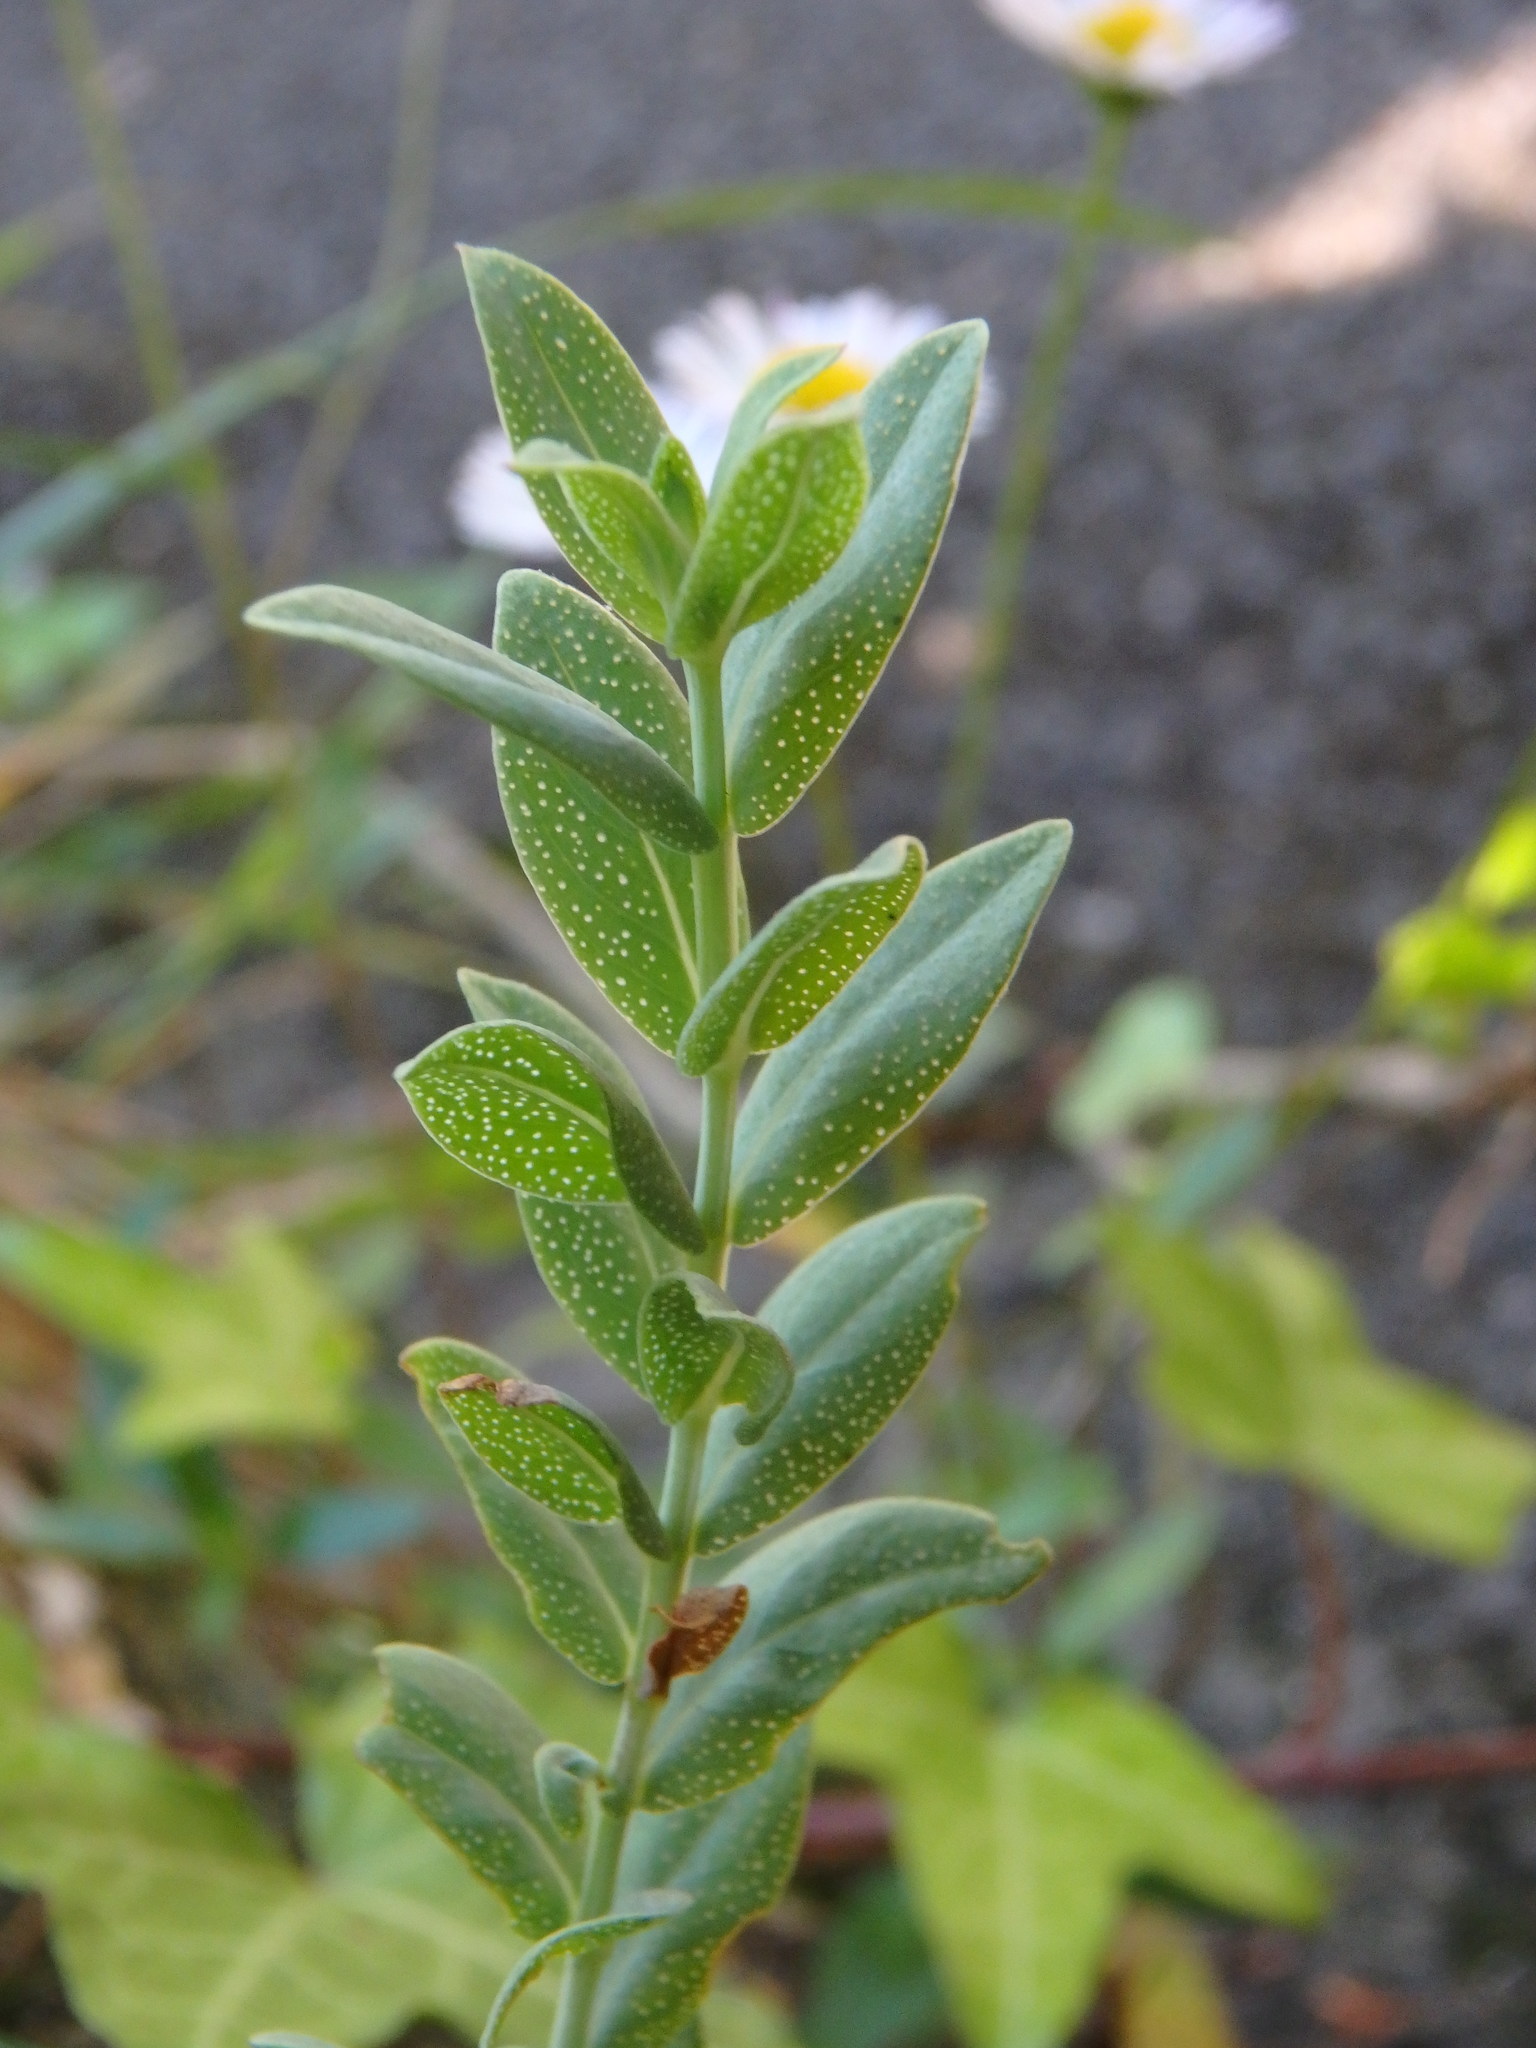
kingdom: Plantae
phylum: Tracheophyta
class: Magnoliopsida
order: Malpighiales
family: Hypericaceae
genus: Hypericum
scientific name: Hypericum perforatum
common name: Common st. johnswort
